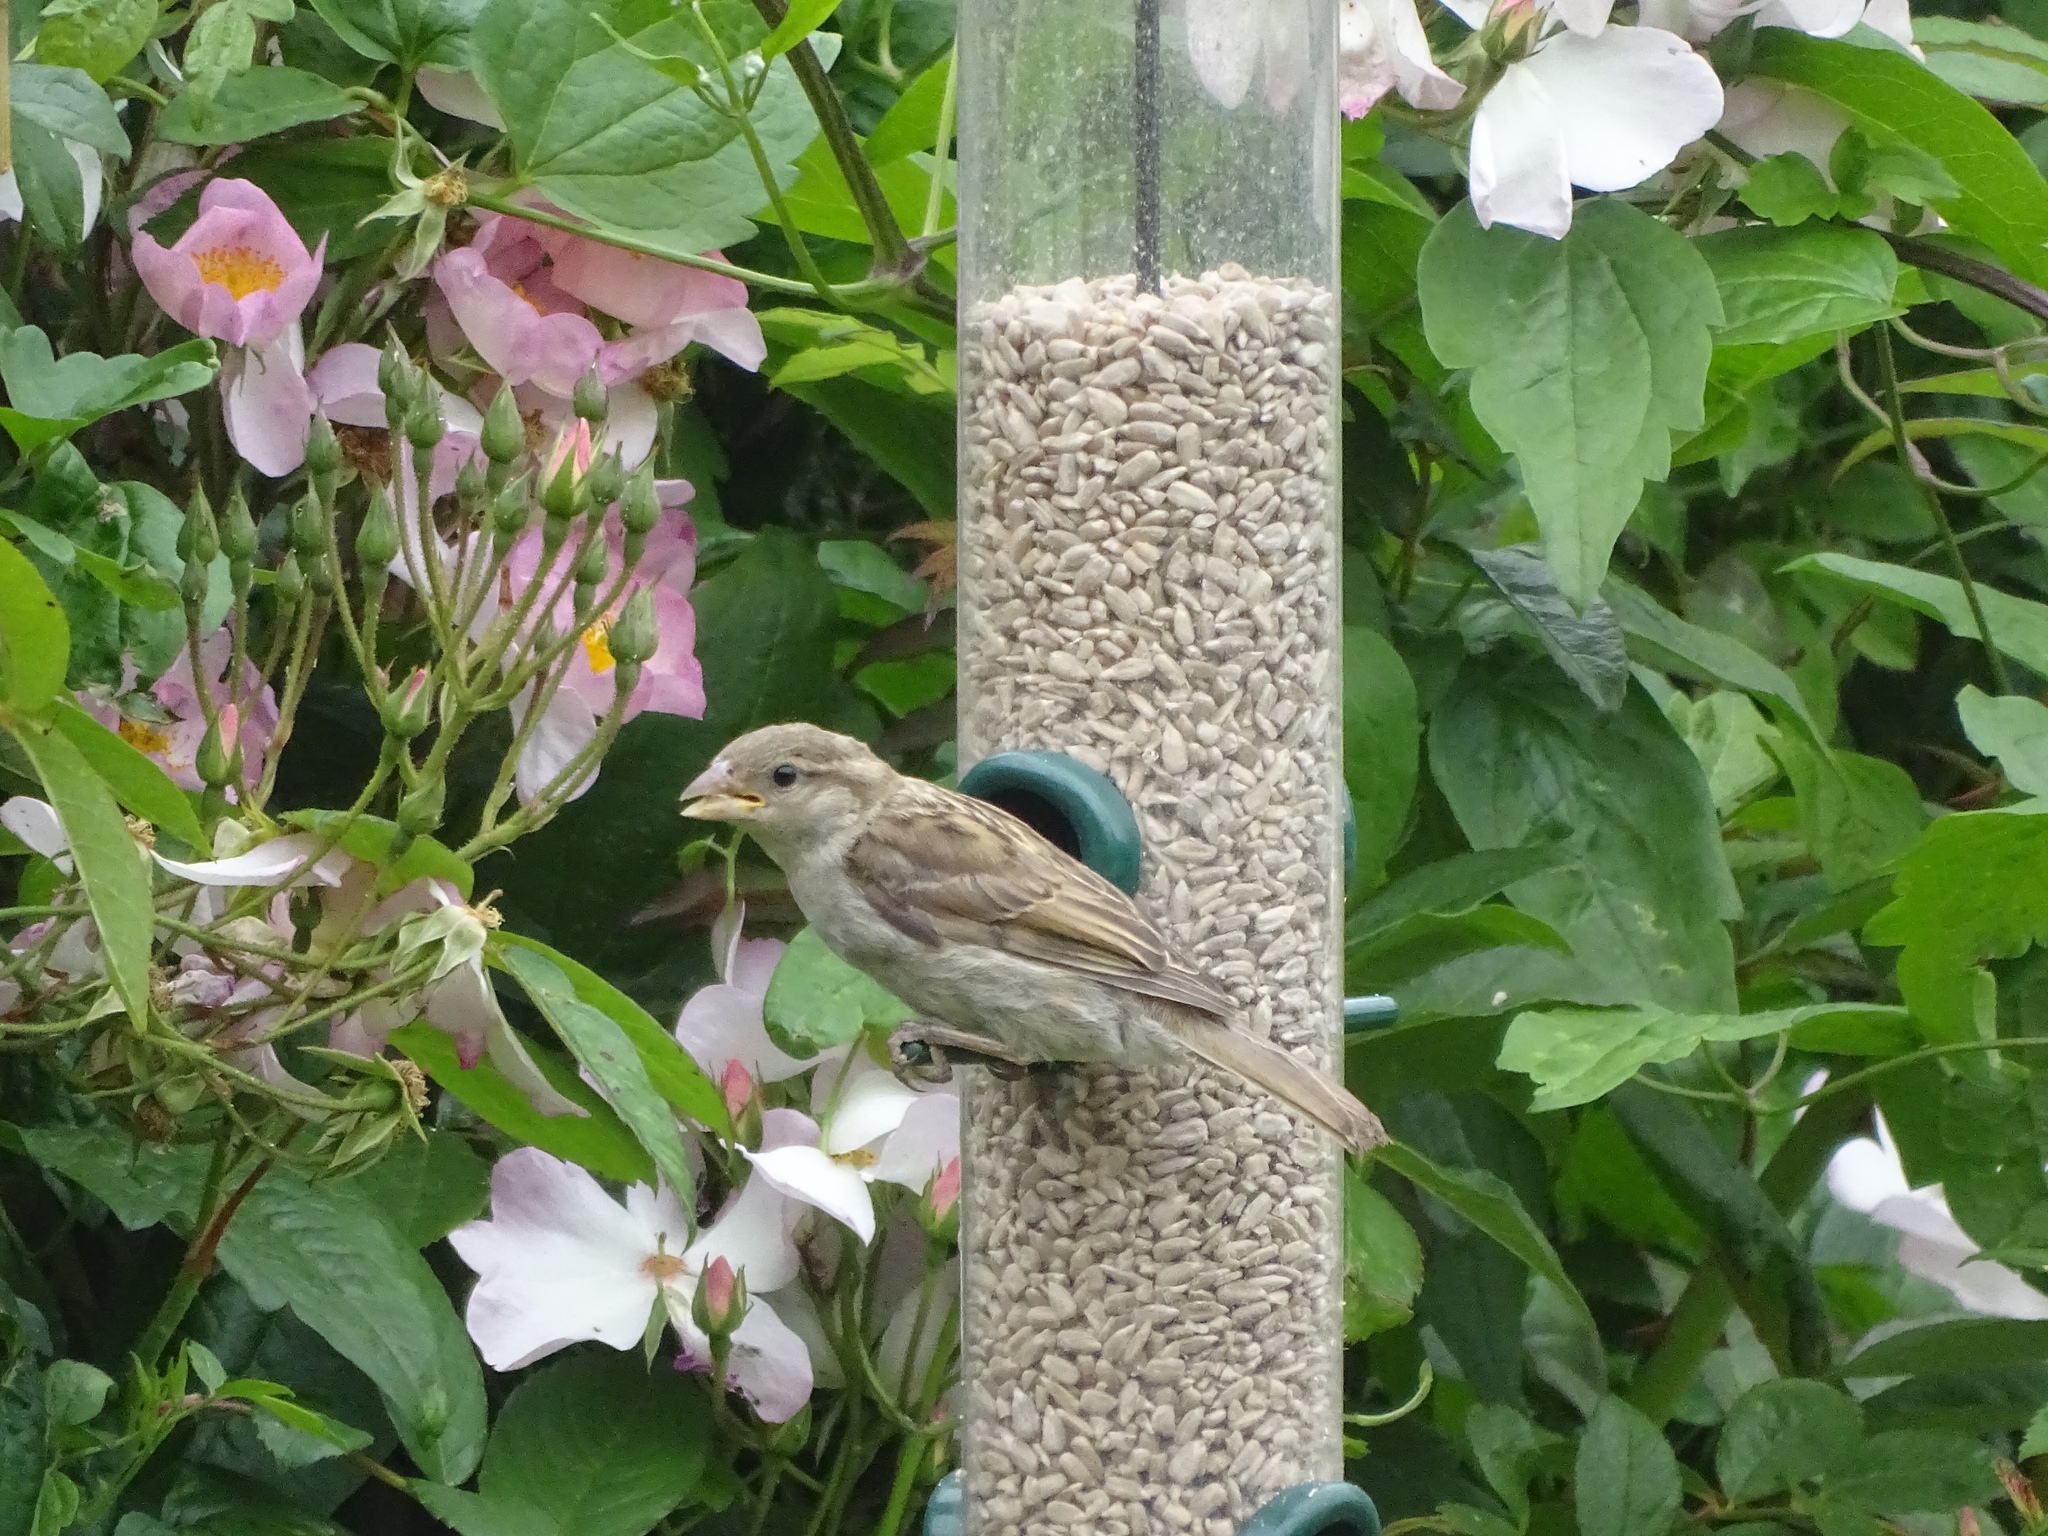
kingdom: Animalia
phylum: Chordata
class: Aves
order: Passeriformes
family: Passeridae
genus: Passer
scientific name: Passer domesticus
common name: House sparrow
